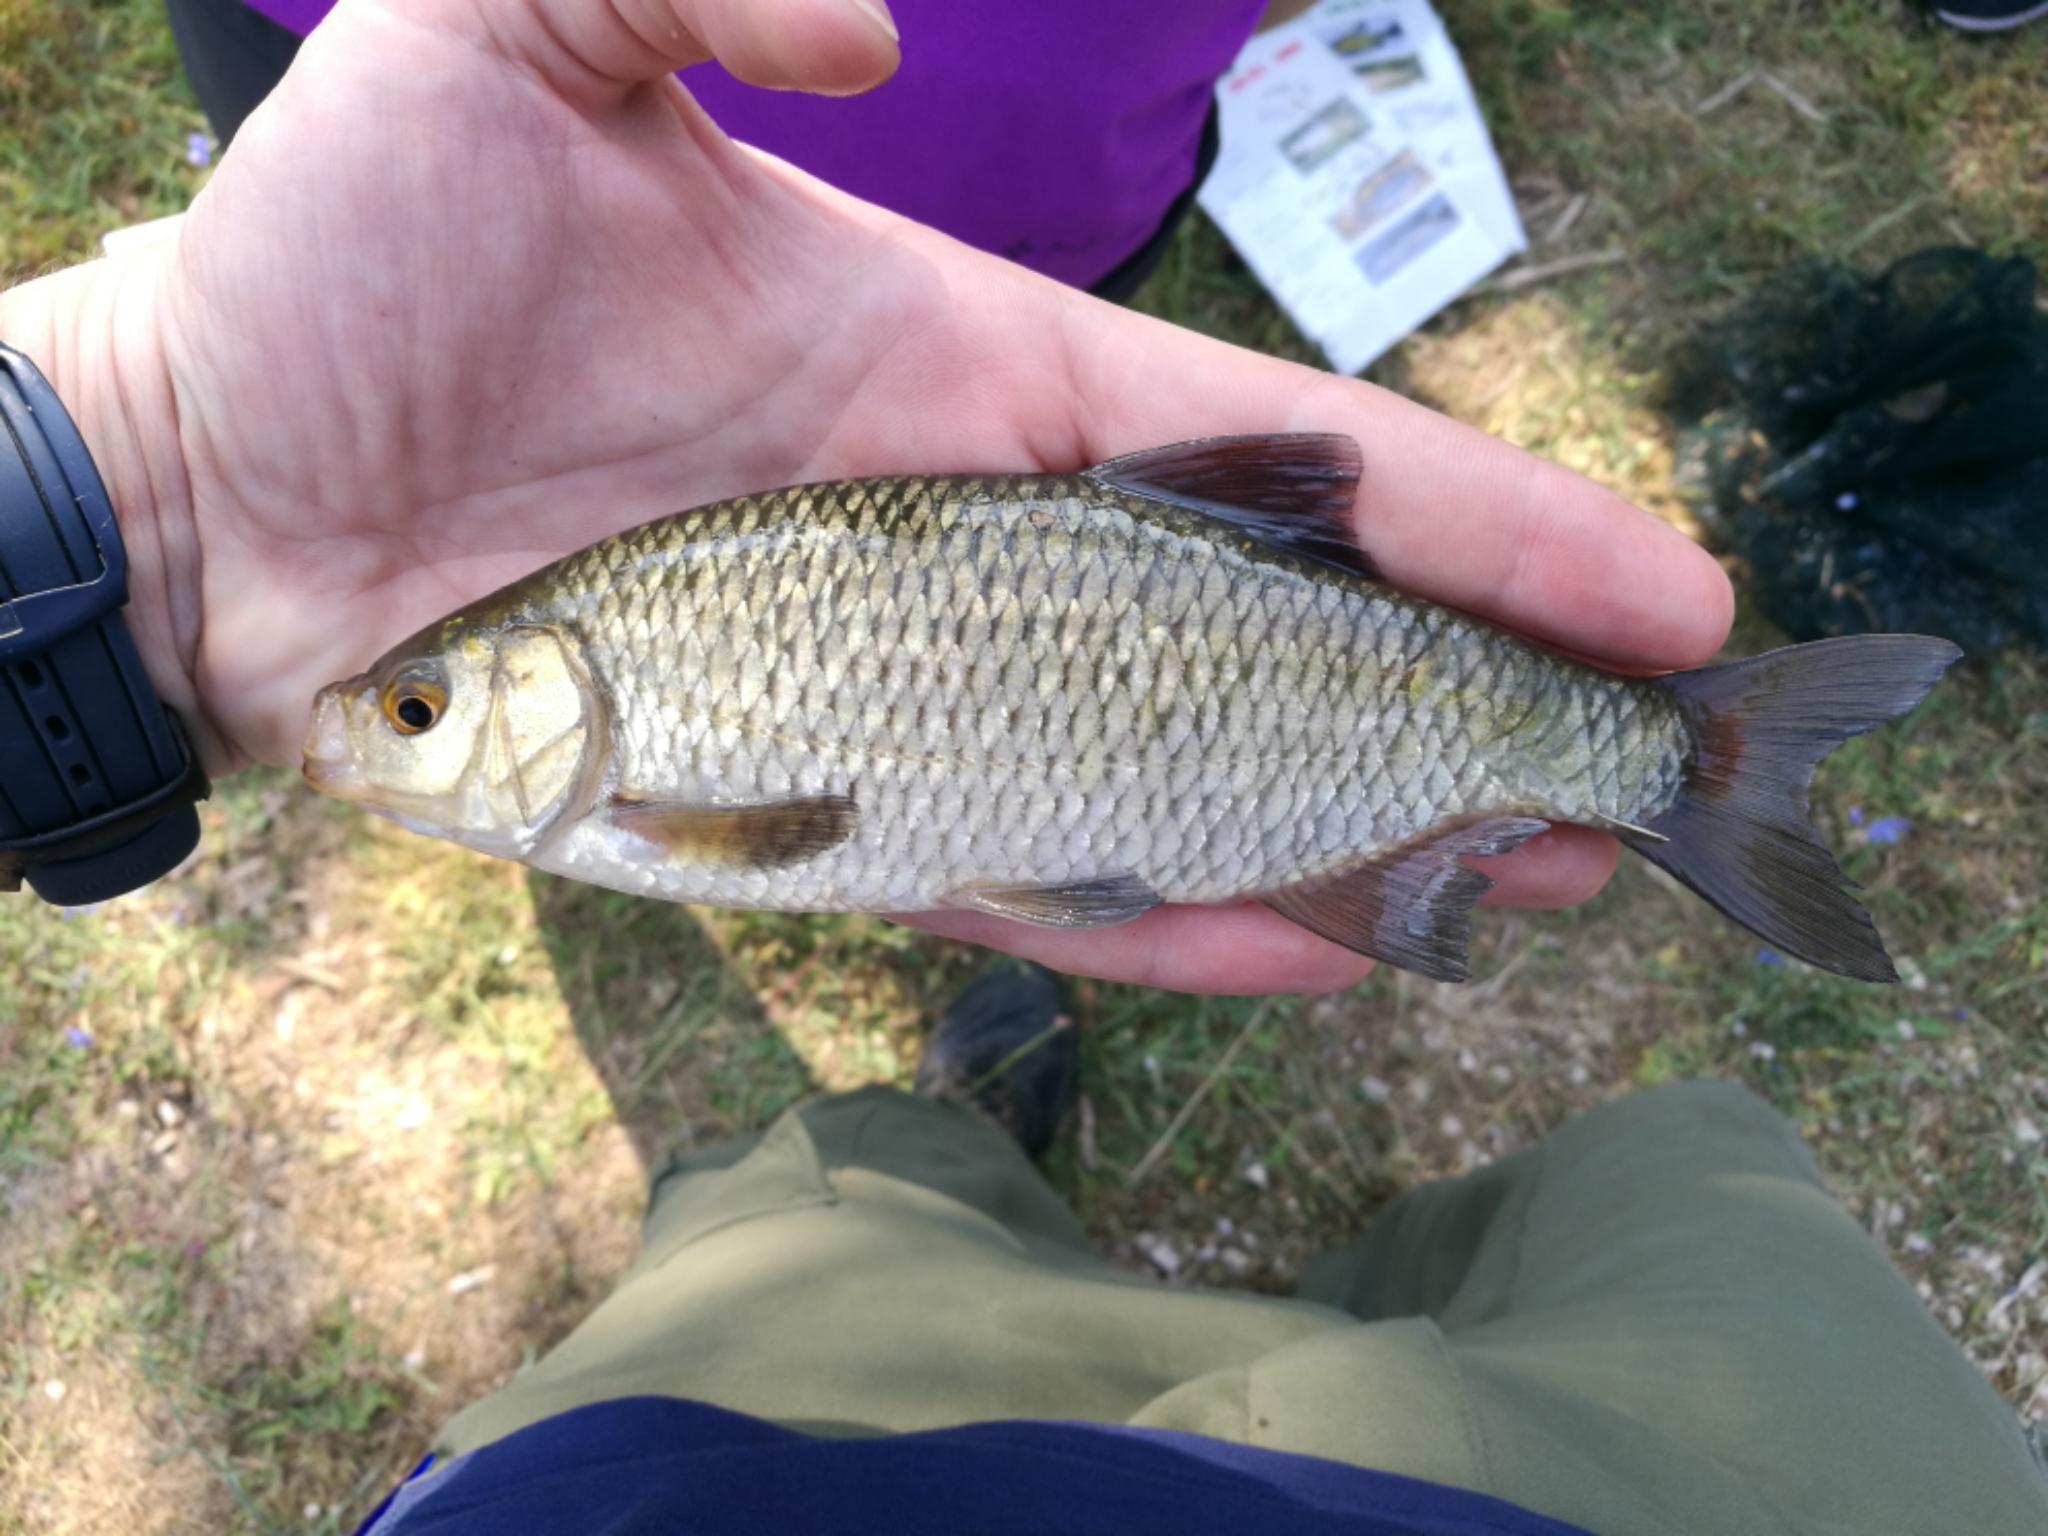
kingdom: Animalia
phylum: Chordata
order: Cypriniformes
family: Cyprinidae
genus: Scardinius
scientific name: Scardinius dergle
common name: Dalmatian rudd
